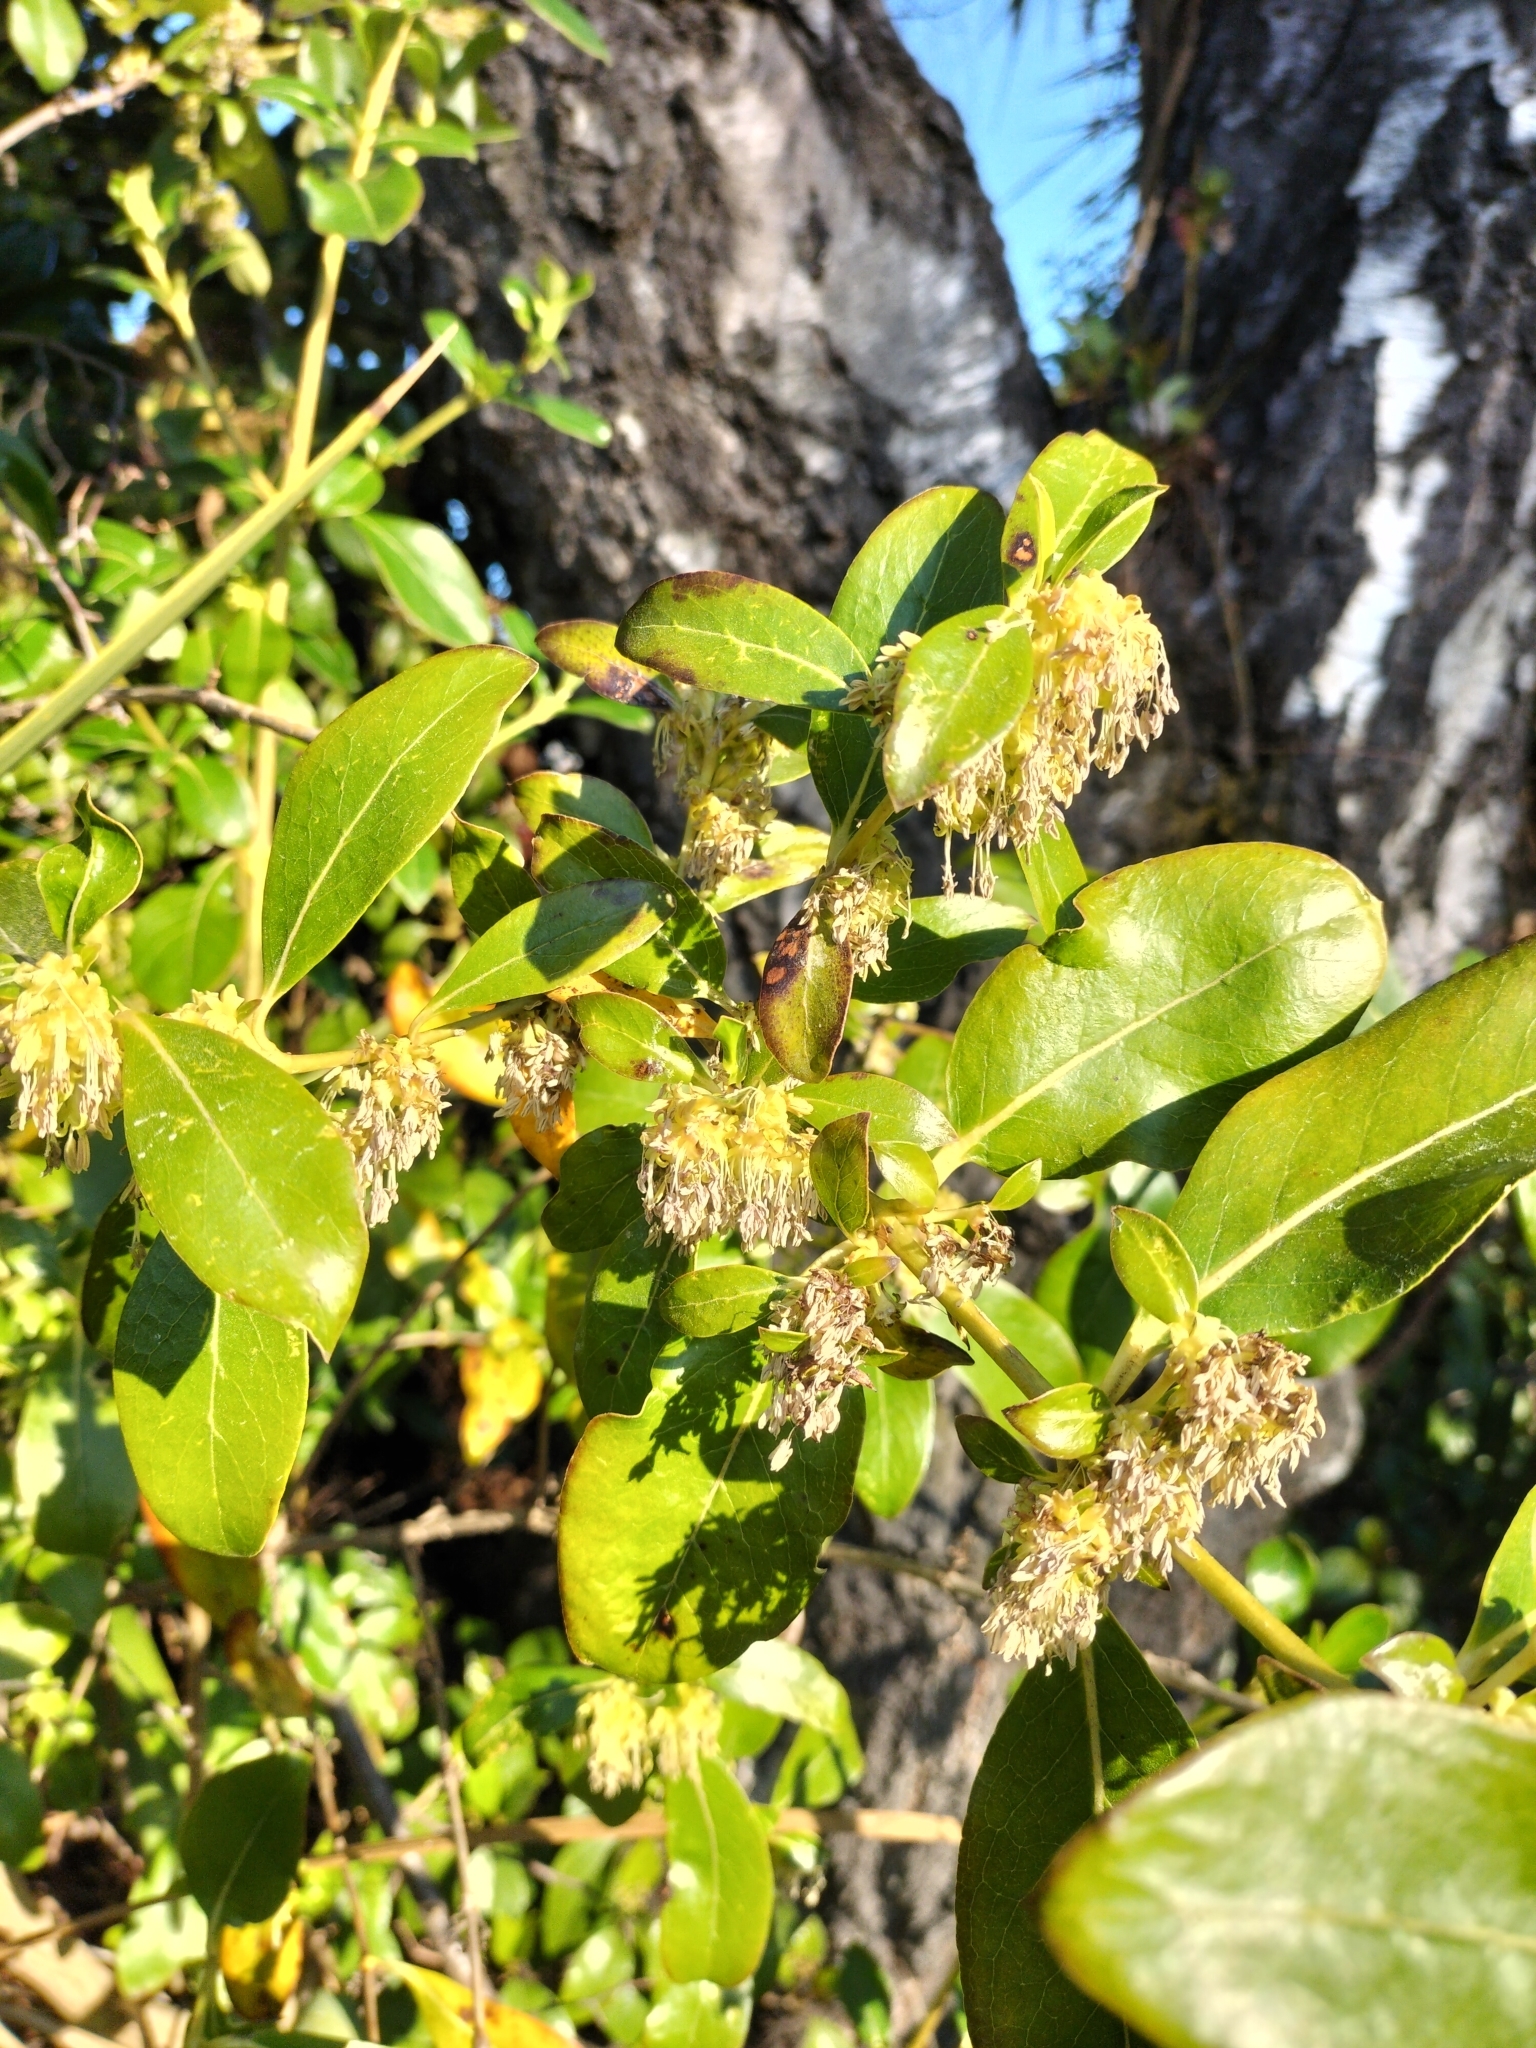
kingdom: Plantae
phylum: Tracheophyta
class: Magnoliopsida
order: Gentianales
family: Rubiaceae
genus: Coprosma
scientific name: Coprosma robusta
